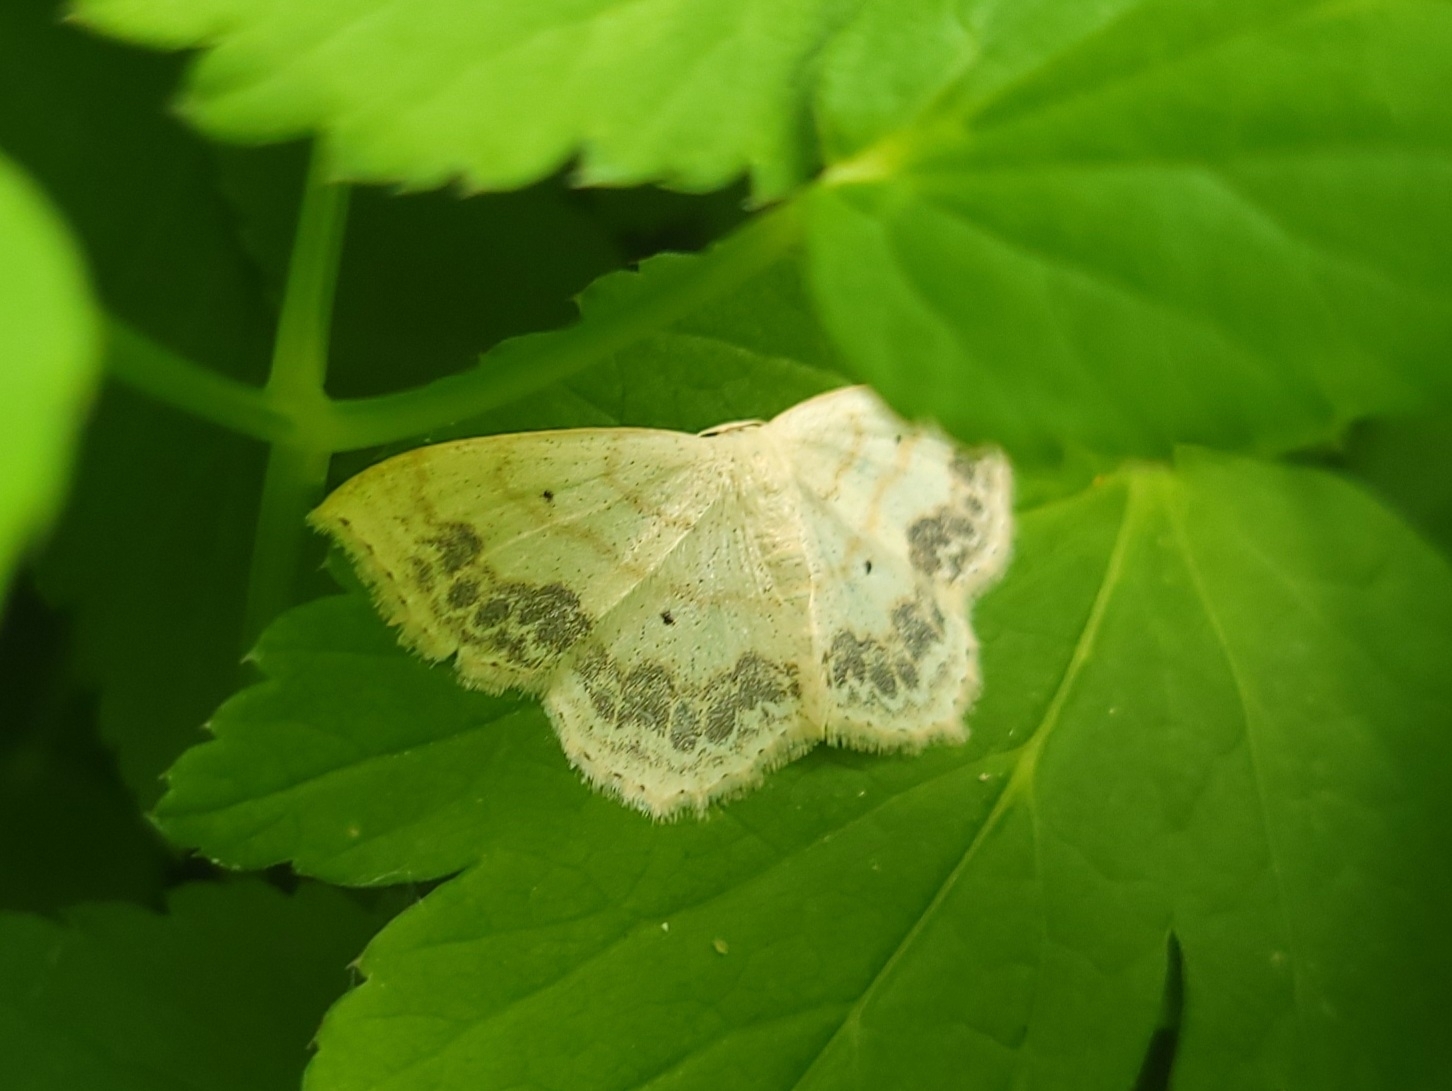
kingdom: Animalia
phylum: Arthropoda
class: Insecta
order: Lepidoptera
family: Geometridae
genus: Scopula
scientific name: Scopula limboundata
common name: Large lace border
